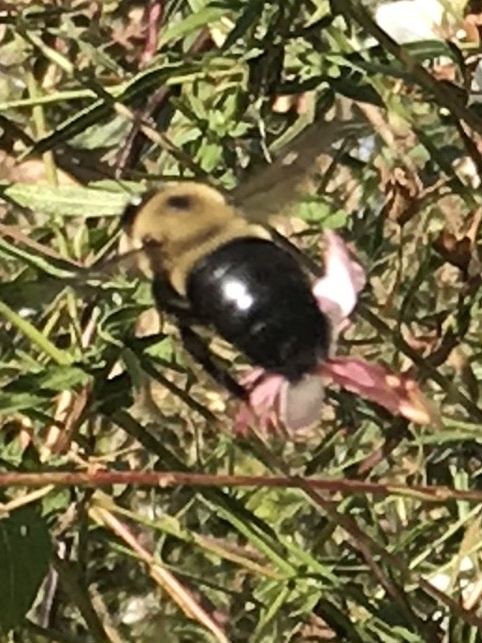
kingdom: Animalia
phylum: Arthropoda
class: Insecta
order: Hymenoptera
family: Apidae
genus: Xylocopa
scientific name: Xylocopa virginica
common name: Carpenter bee
